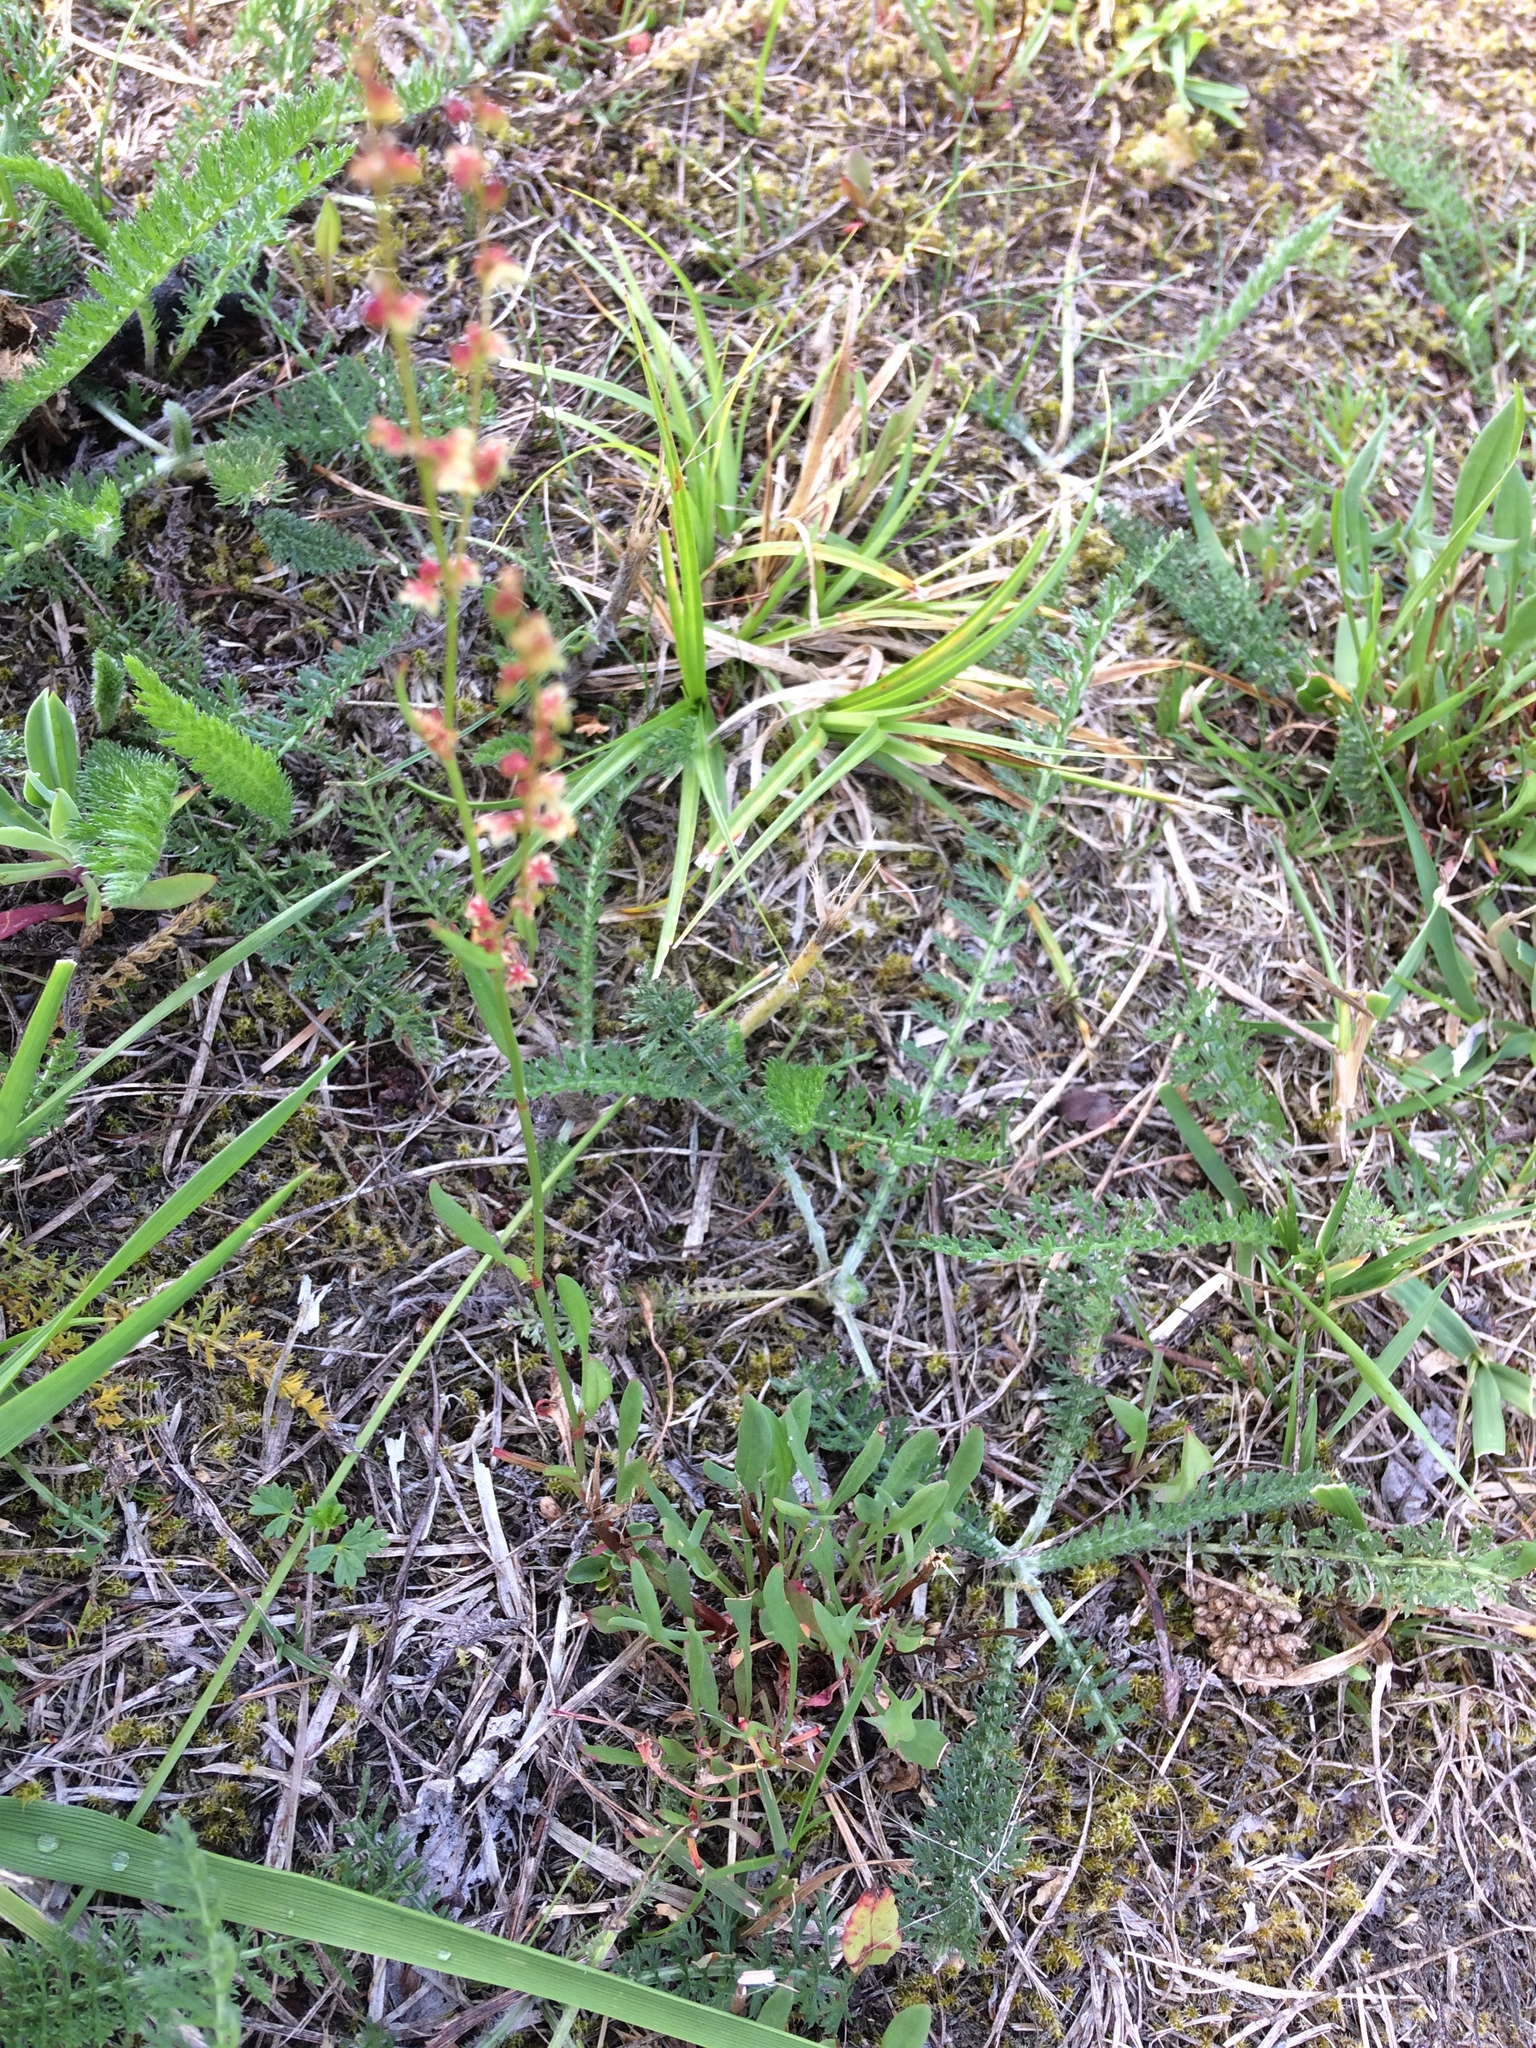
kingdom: Plantae
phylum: Tracheophyta
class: Magnoliopsida
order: Caryophyllales
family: Polygonaceae
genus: Rumex
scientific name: Rumex acetosella
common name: Common sheep sorrel
